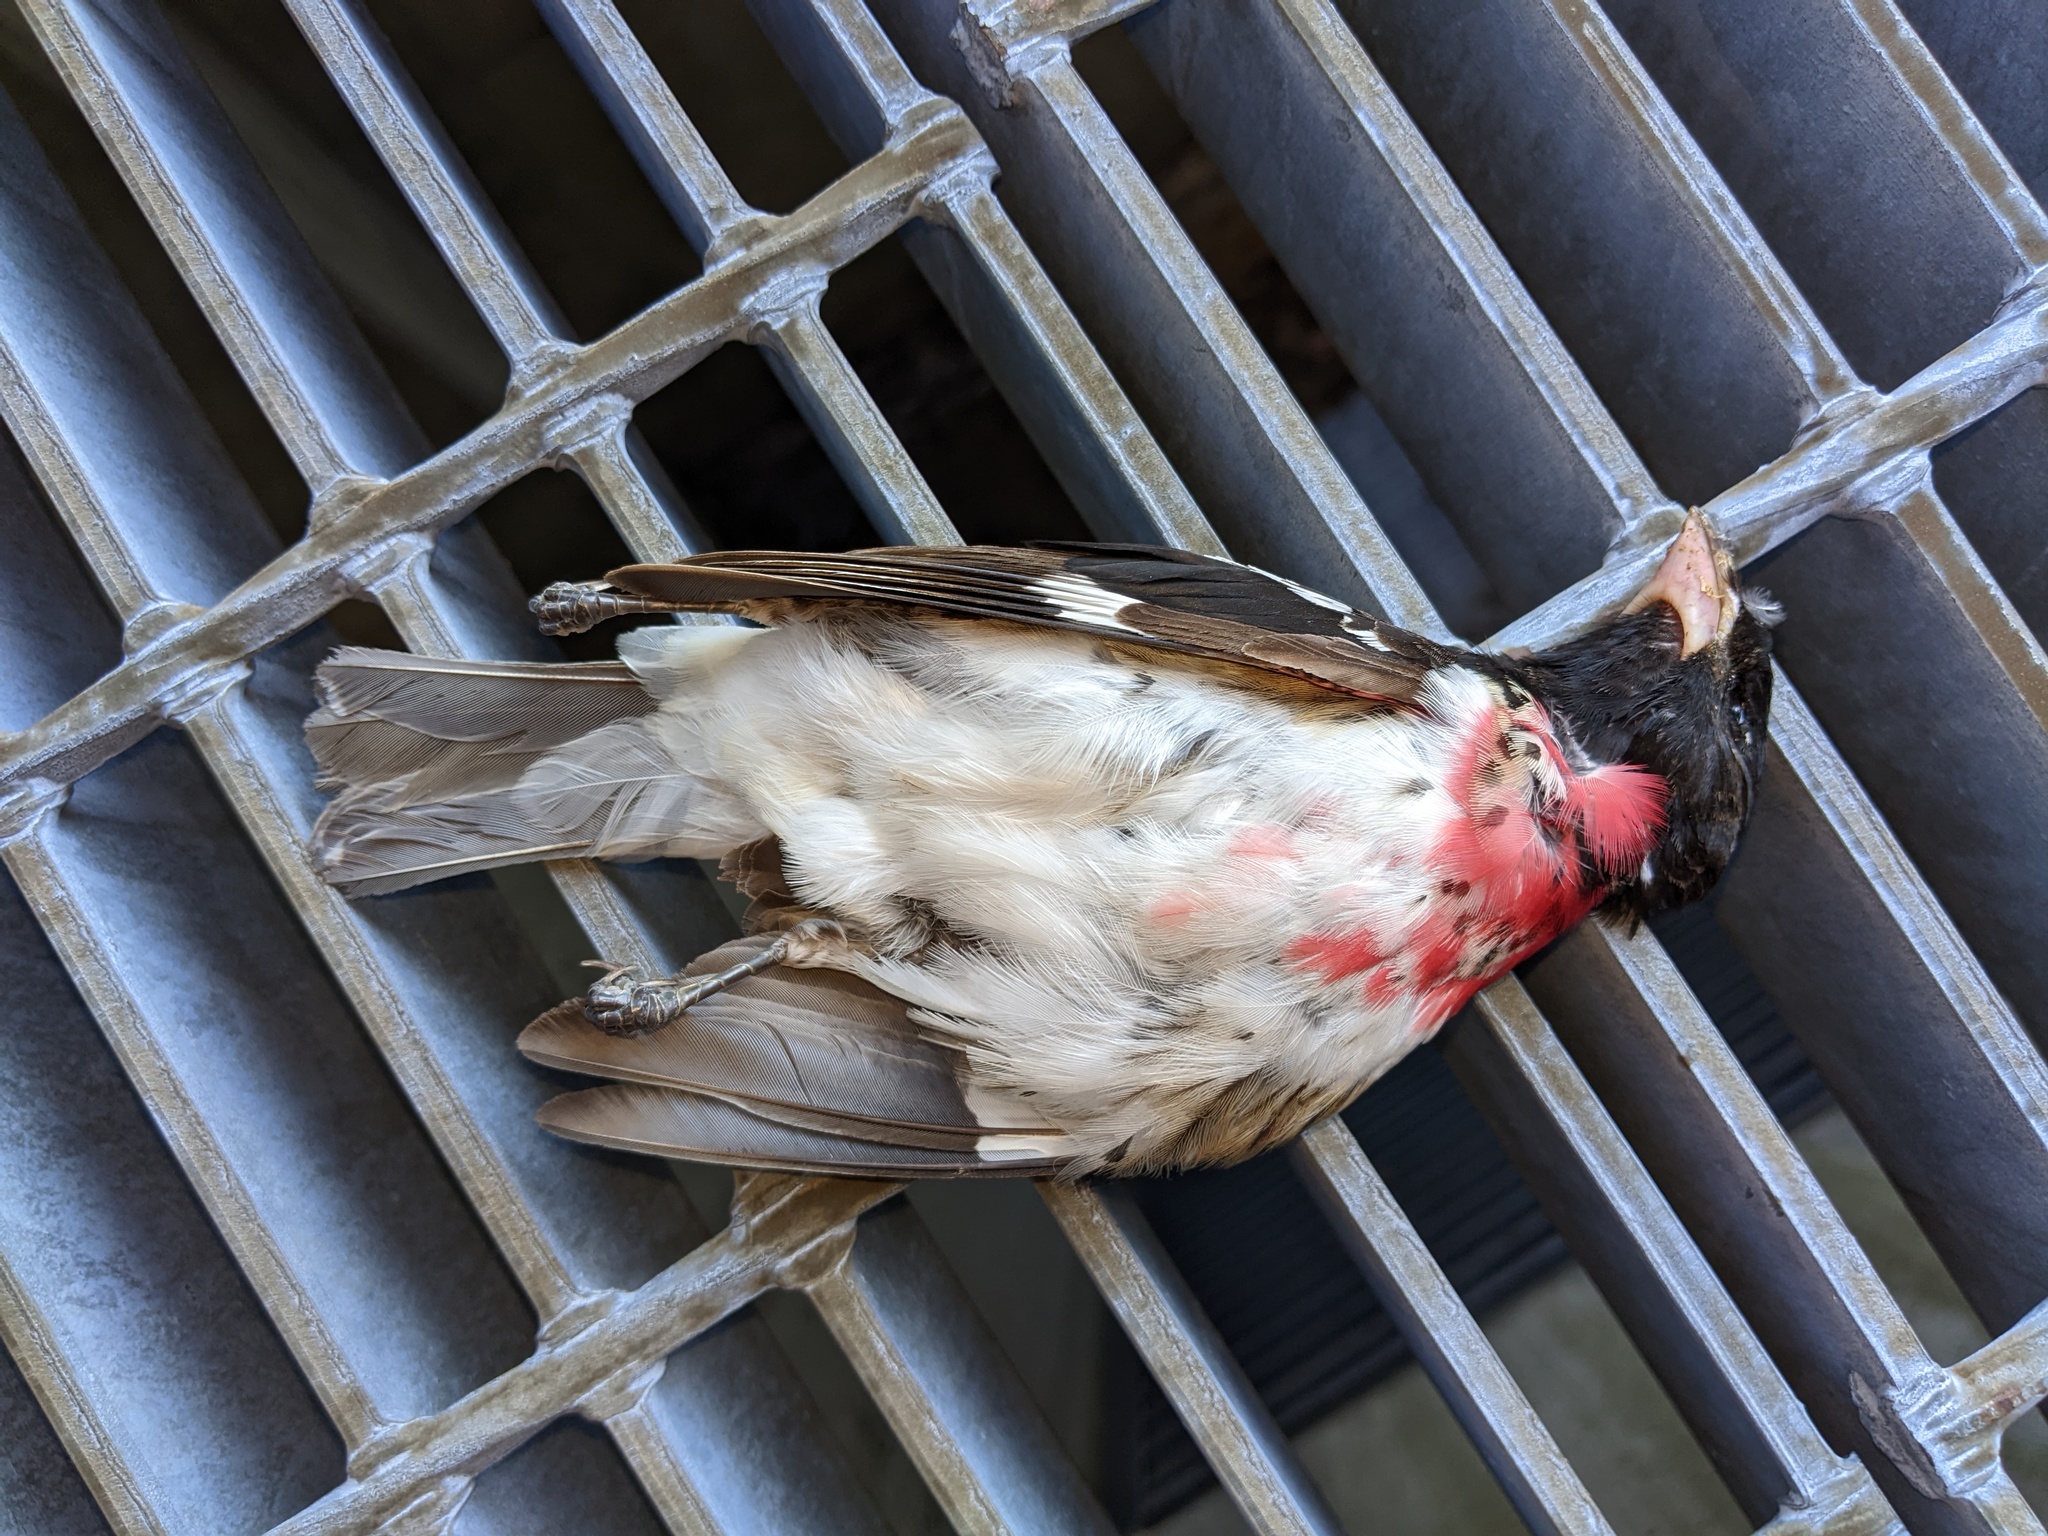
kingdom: Animalia
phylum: Chordata
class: Aves
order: Passeriformes
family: Cardinalidae
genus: Pheucticus
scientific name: Pheucticus ludovicianus
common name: Rose-breasted grosbeak
